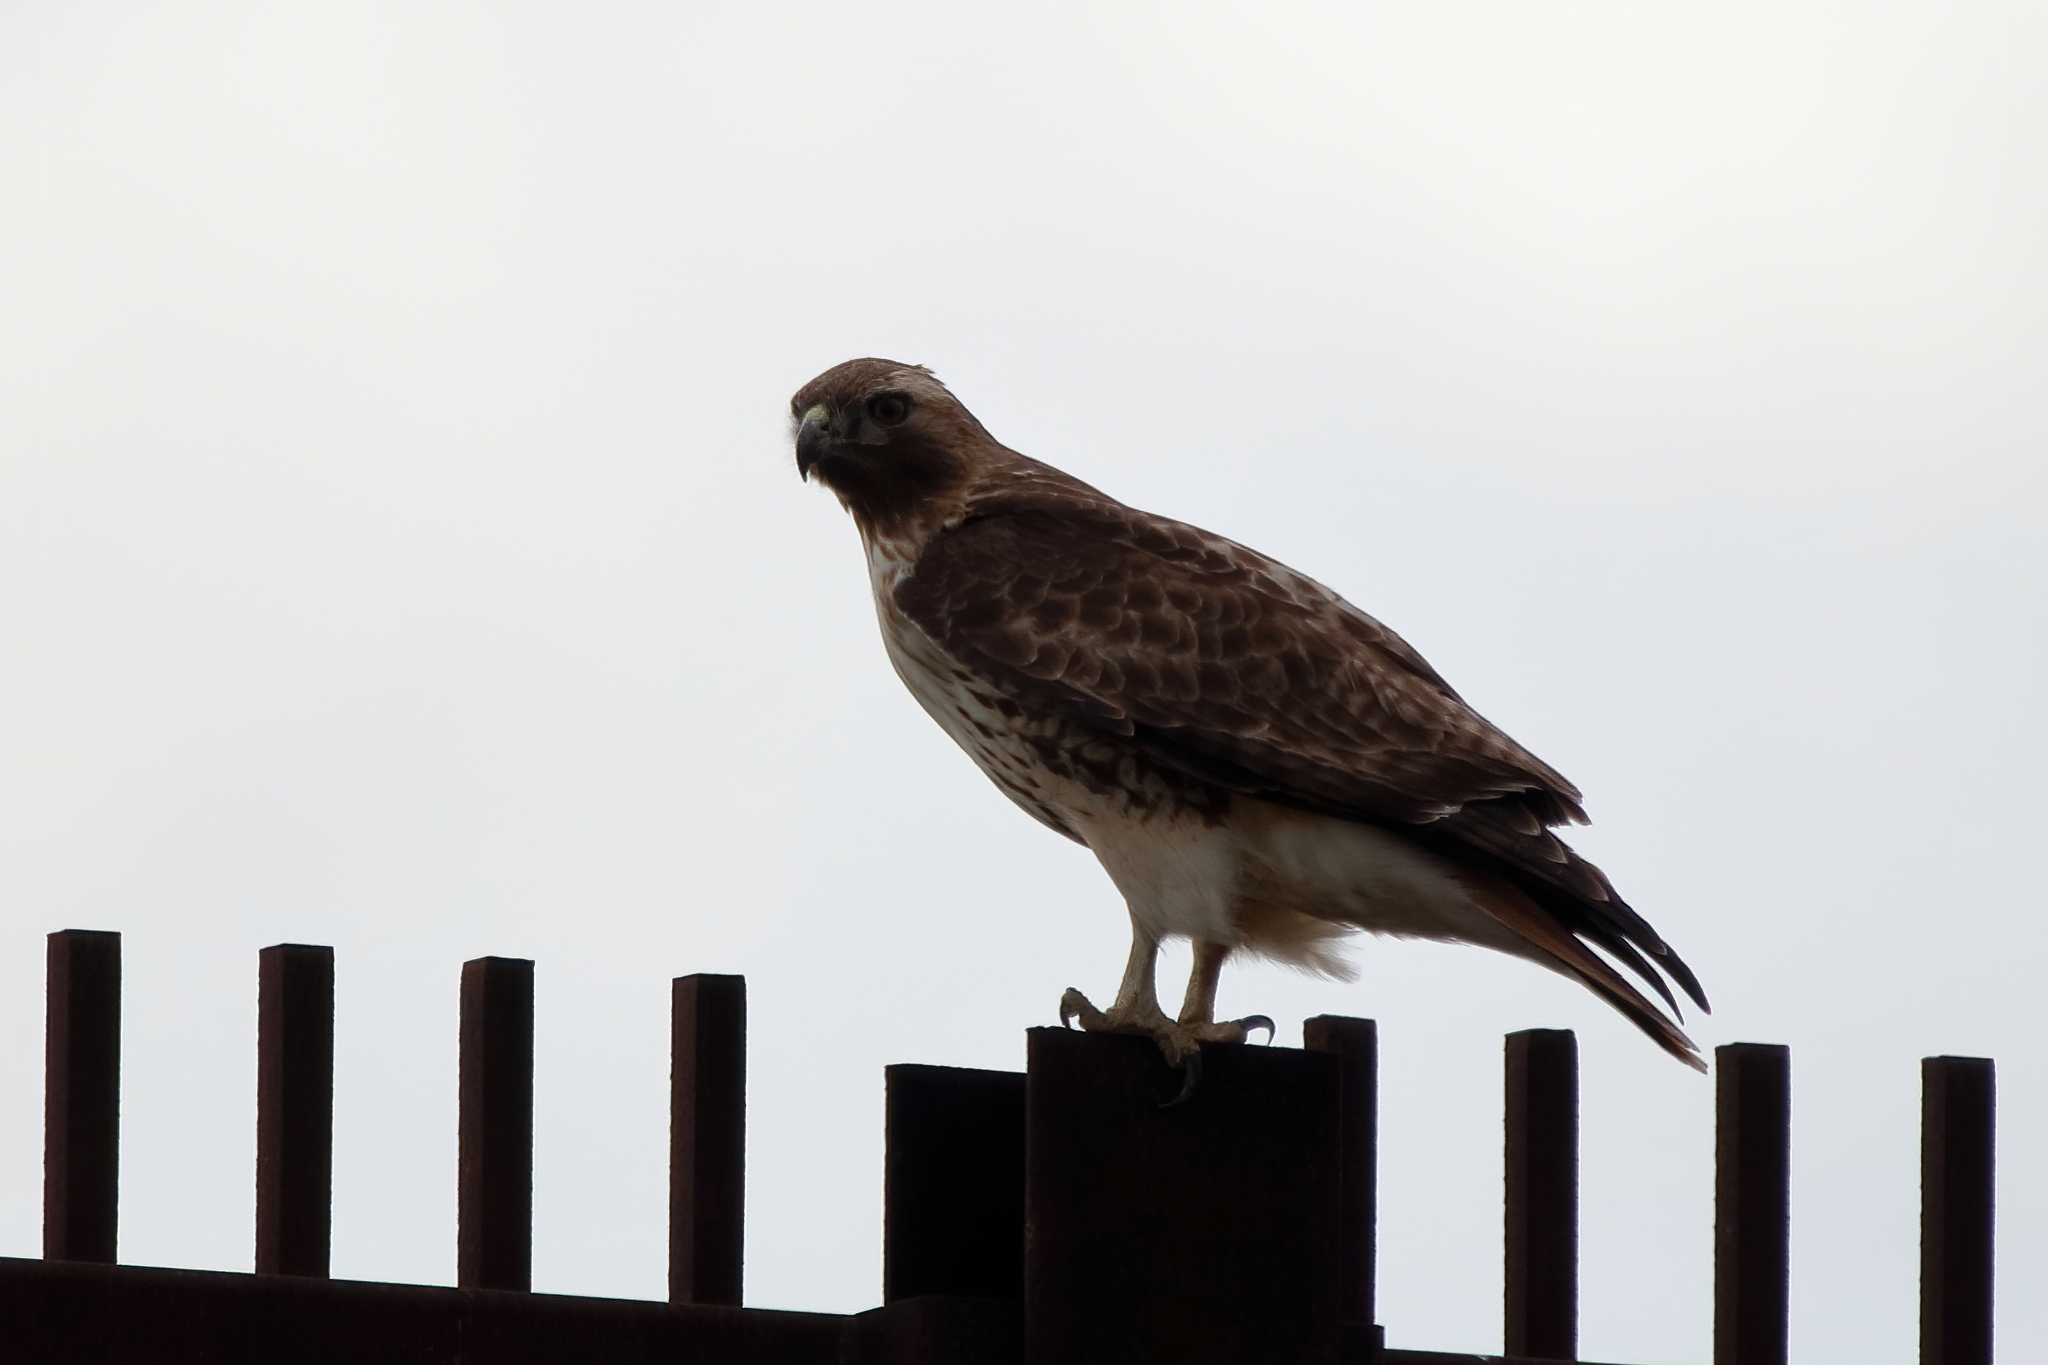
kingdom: Animalia
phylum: Chordata
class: Aves
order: Accipitriformes
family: Accipitridae
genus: Buteo
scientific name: Buteo jamaicensis
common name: Red-tailed hawk
